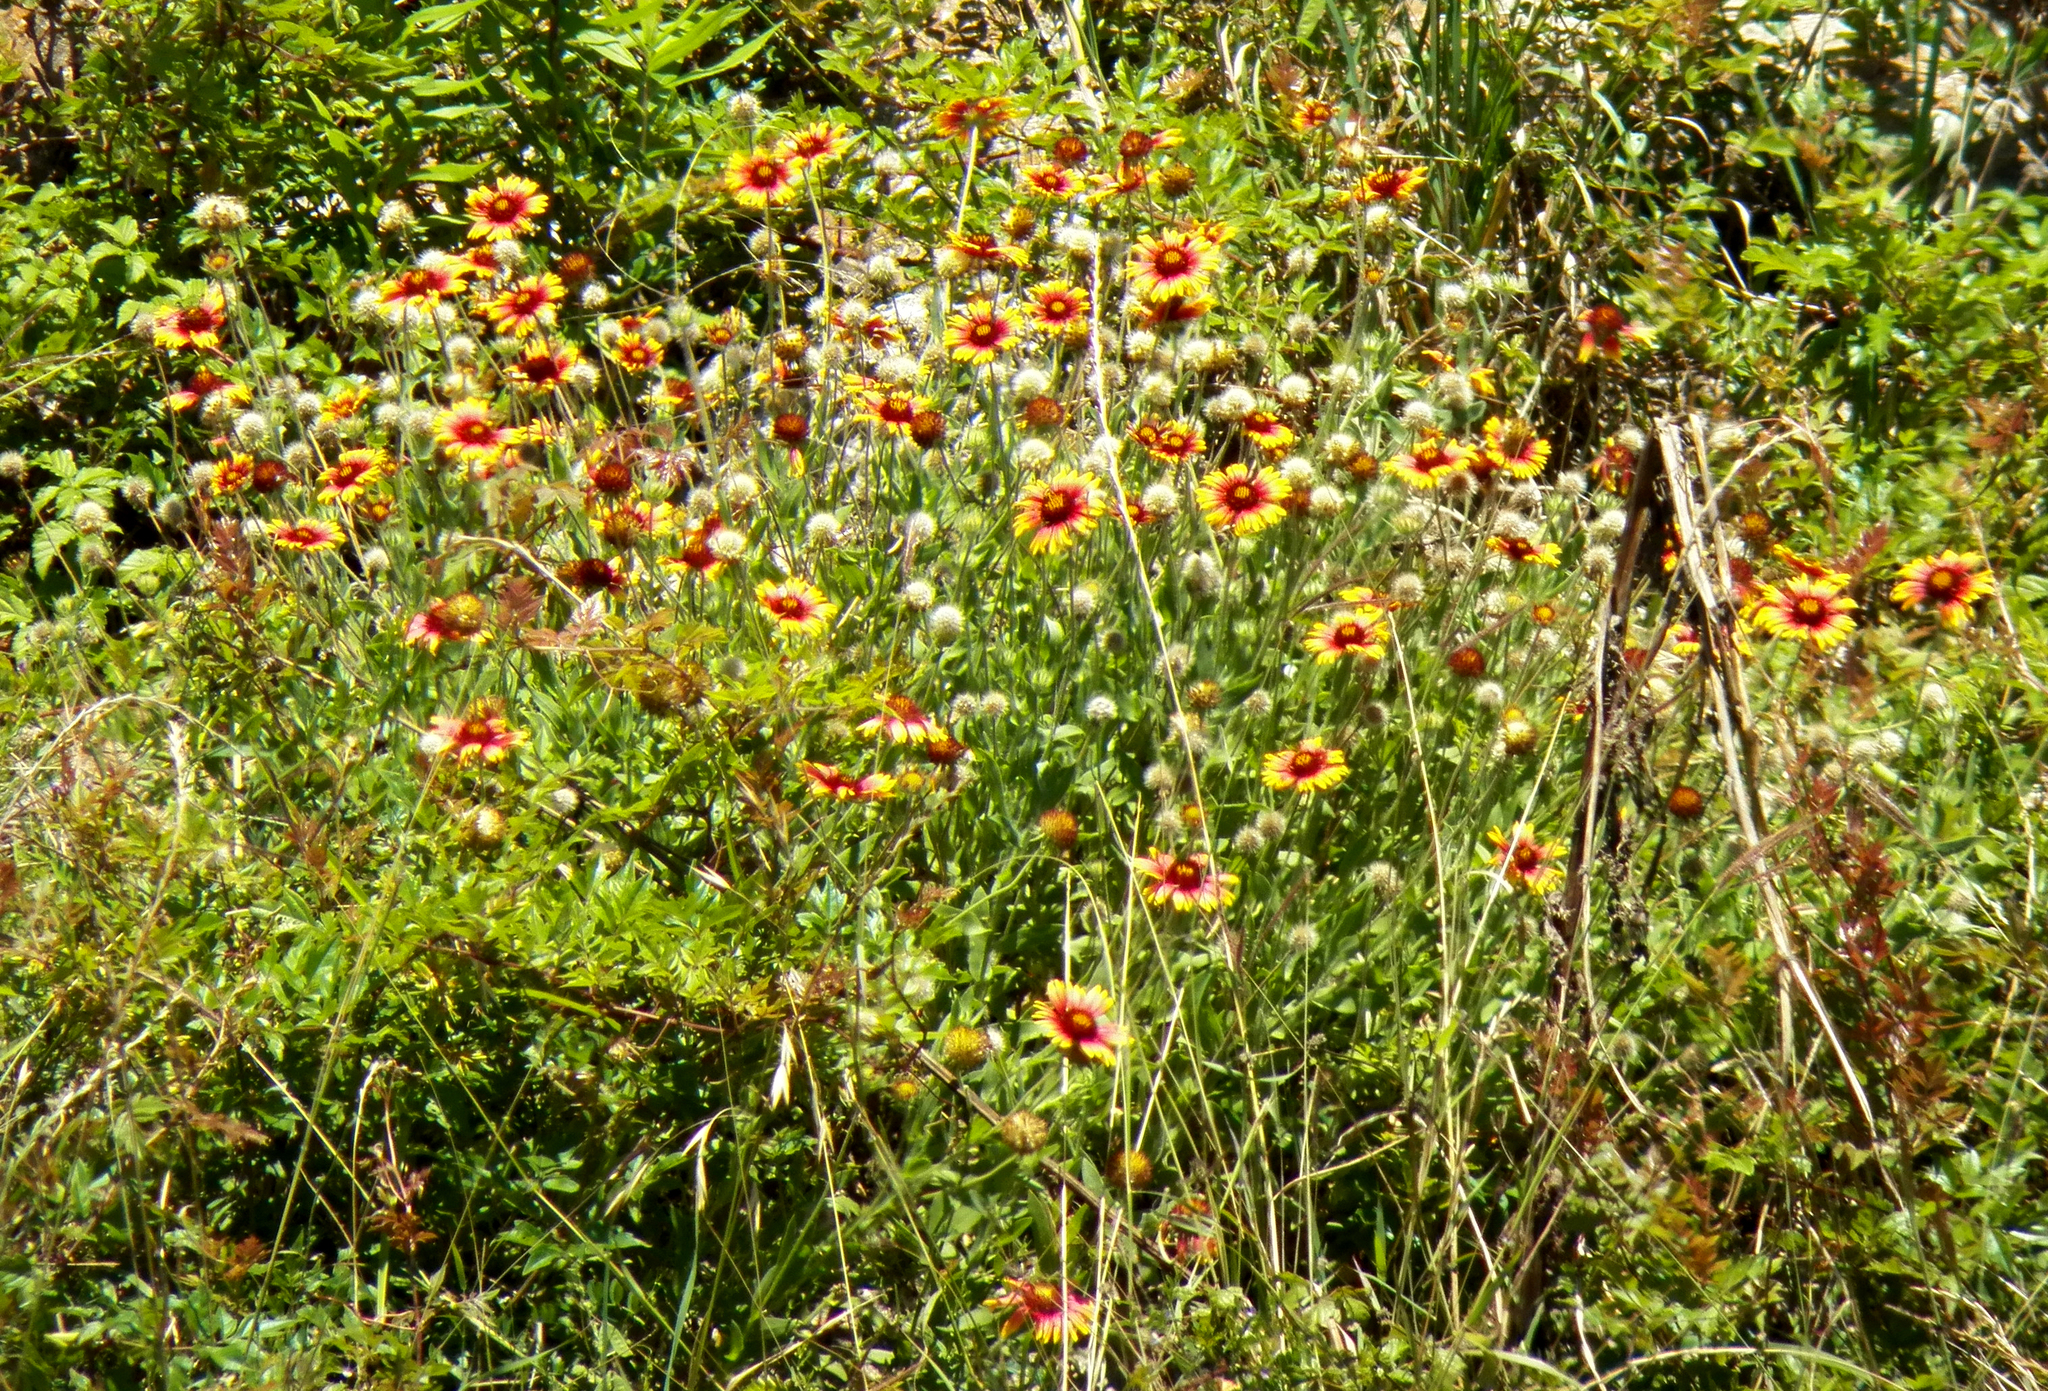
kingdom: Plantae
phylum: Tracheophyta
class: Magnoliopsida
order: Asterales
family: Asteraceae
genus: Gaillardia
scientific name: Gaillardia pulchella
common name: Firewheel
